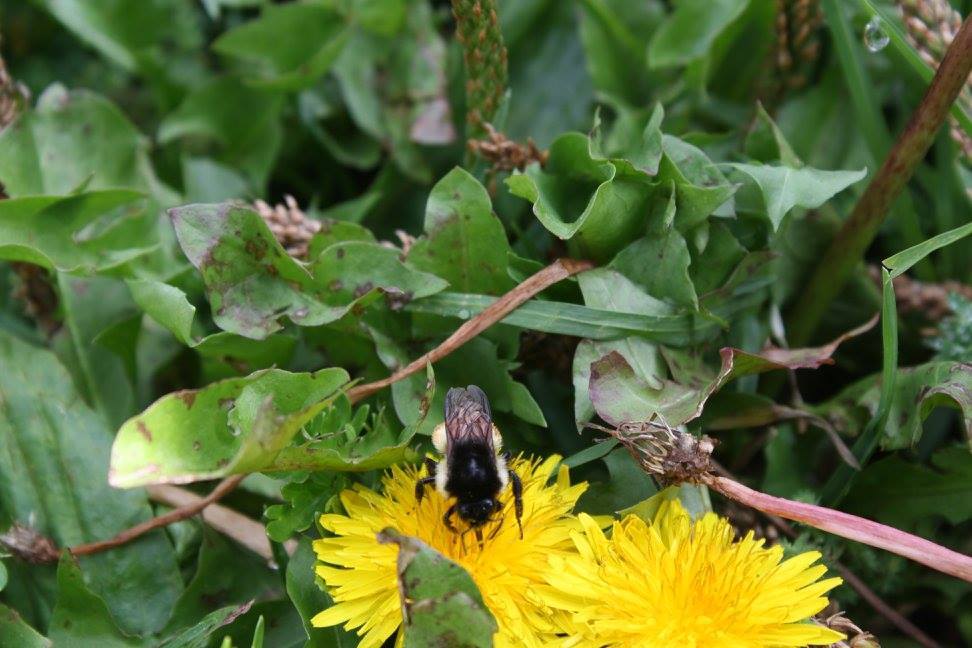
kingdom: Animalia
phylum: Arthropoda
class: Insecta
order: Hymenoptera
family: Apidae
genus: Bombus
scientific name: Bombus ephippiatus
